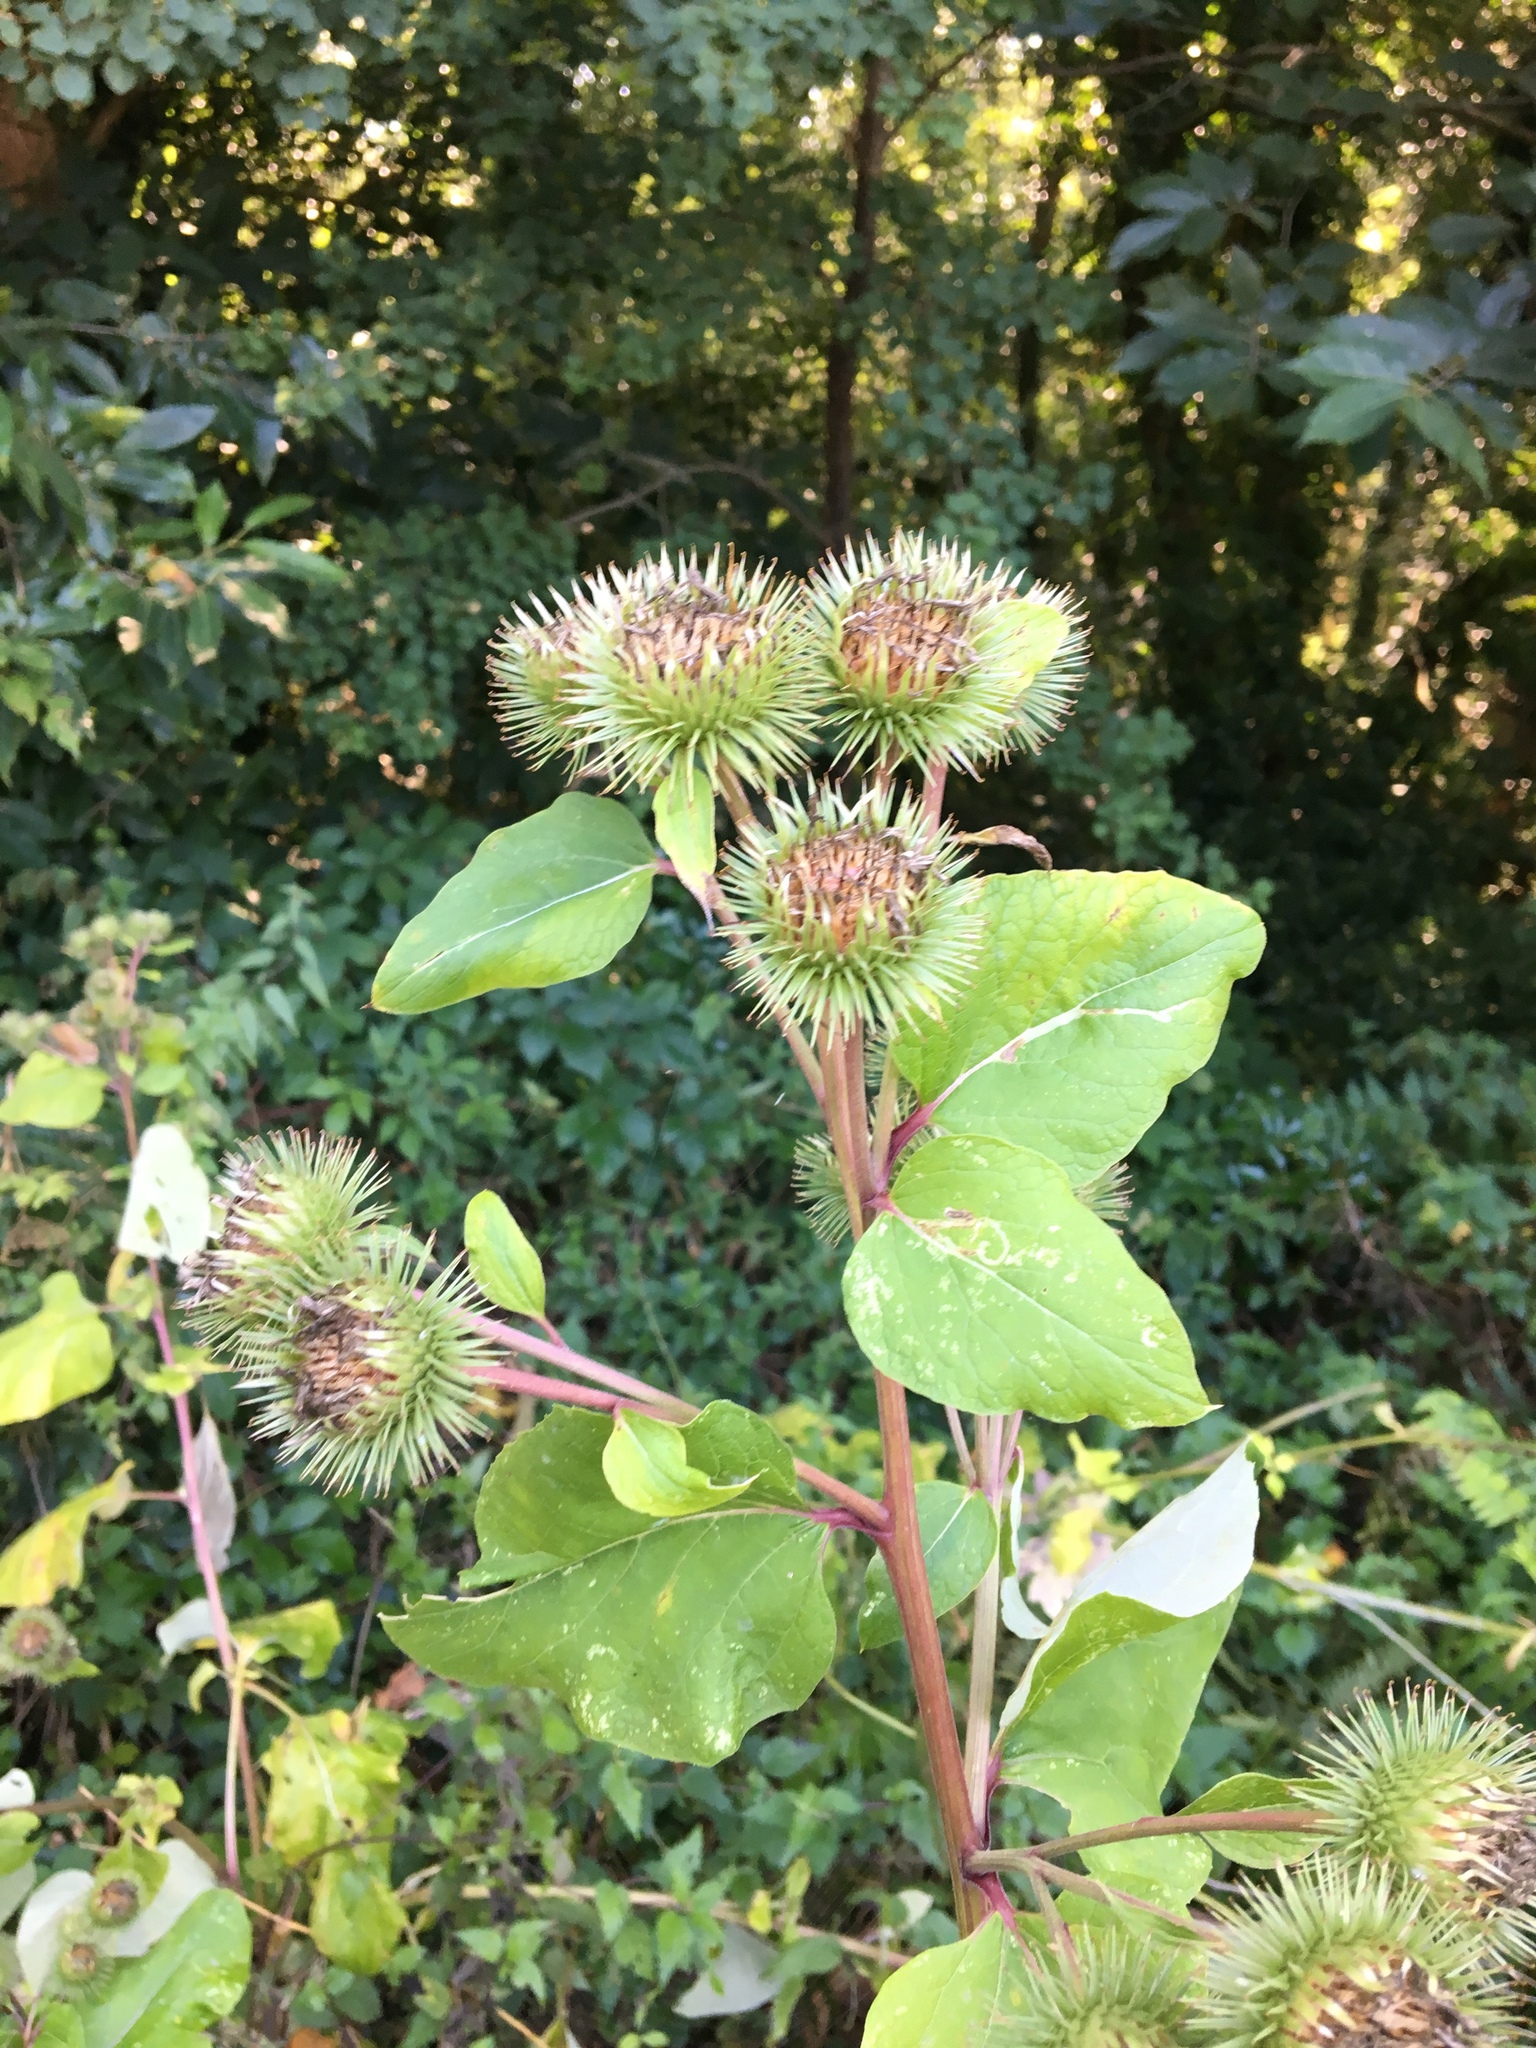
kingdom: Plantae
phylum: Tracheophyta
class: Magnoliopsida
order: Asterales
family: Asteraceae
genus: Arctium
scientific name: Arctium lappa
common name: Greater burdock
